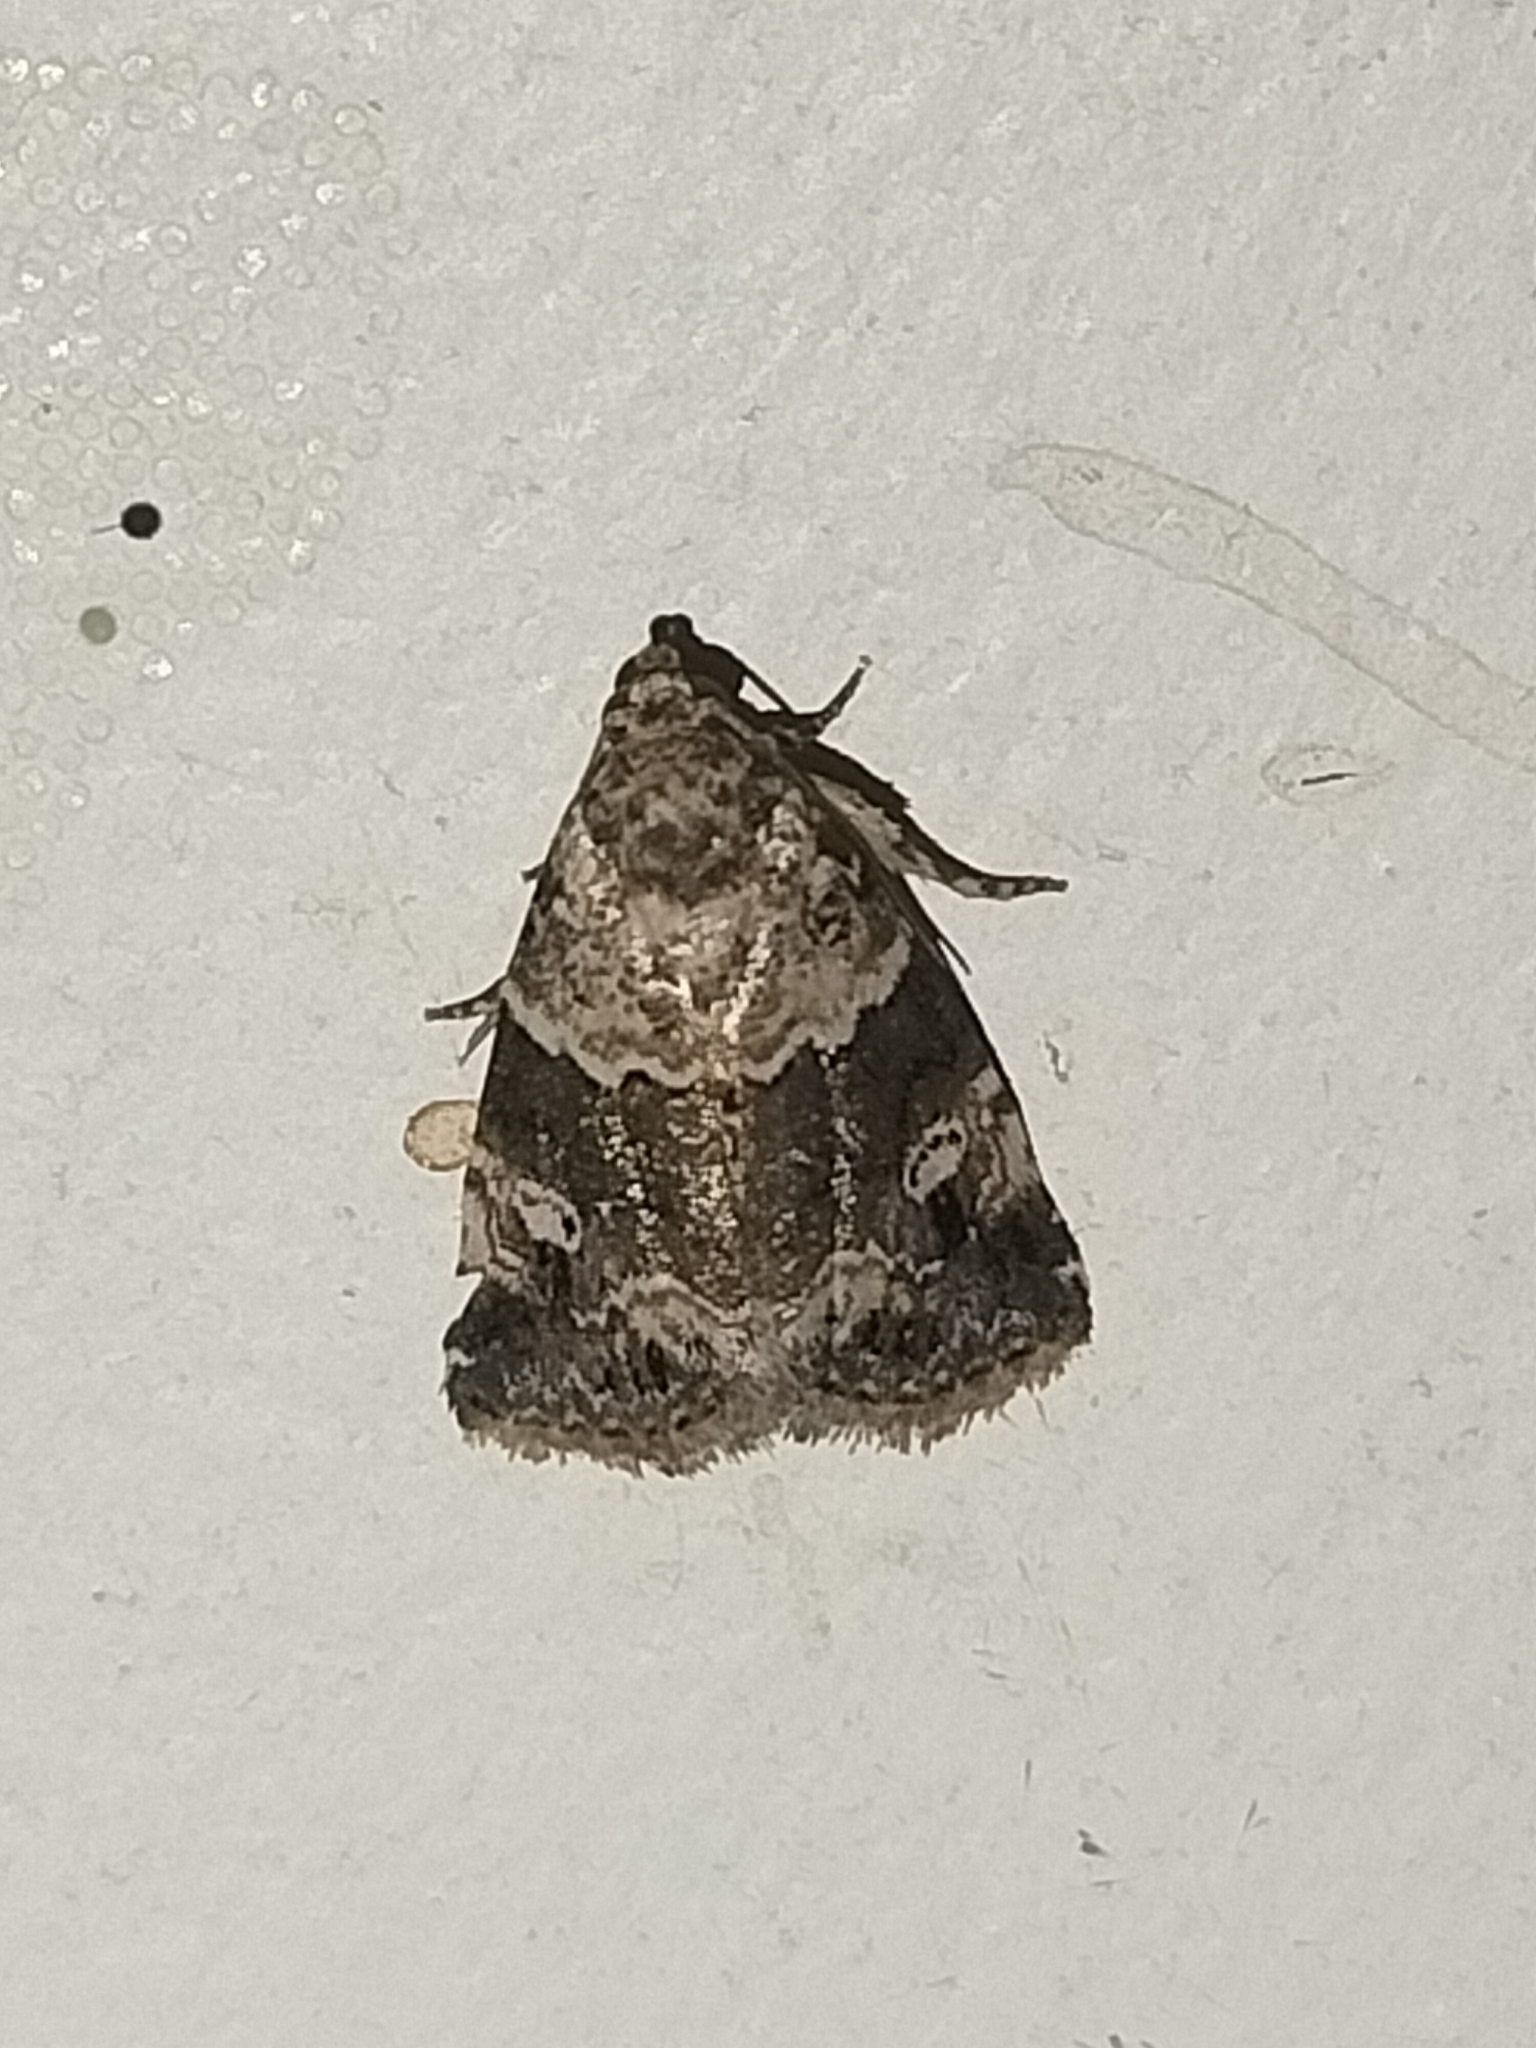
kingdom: Animalia
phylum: Arthropoda
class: Insecta
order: Lepidoptera
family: Noctuidae
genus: Maliattha
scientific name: Maliattha signifera
